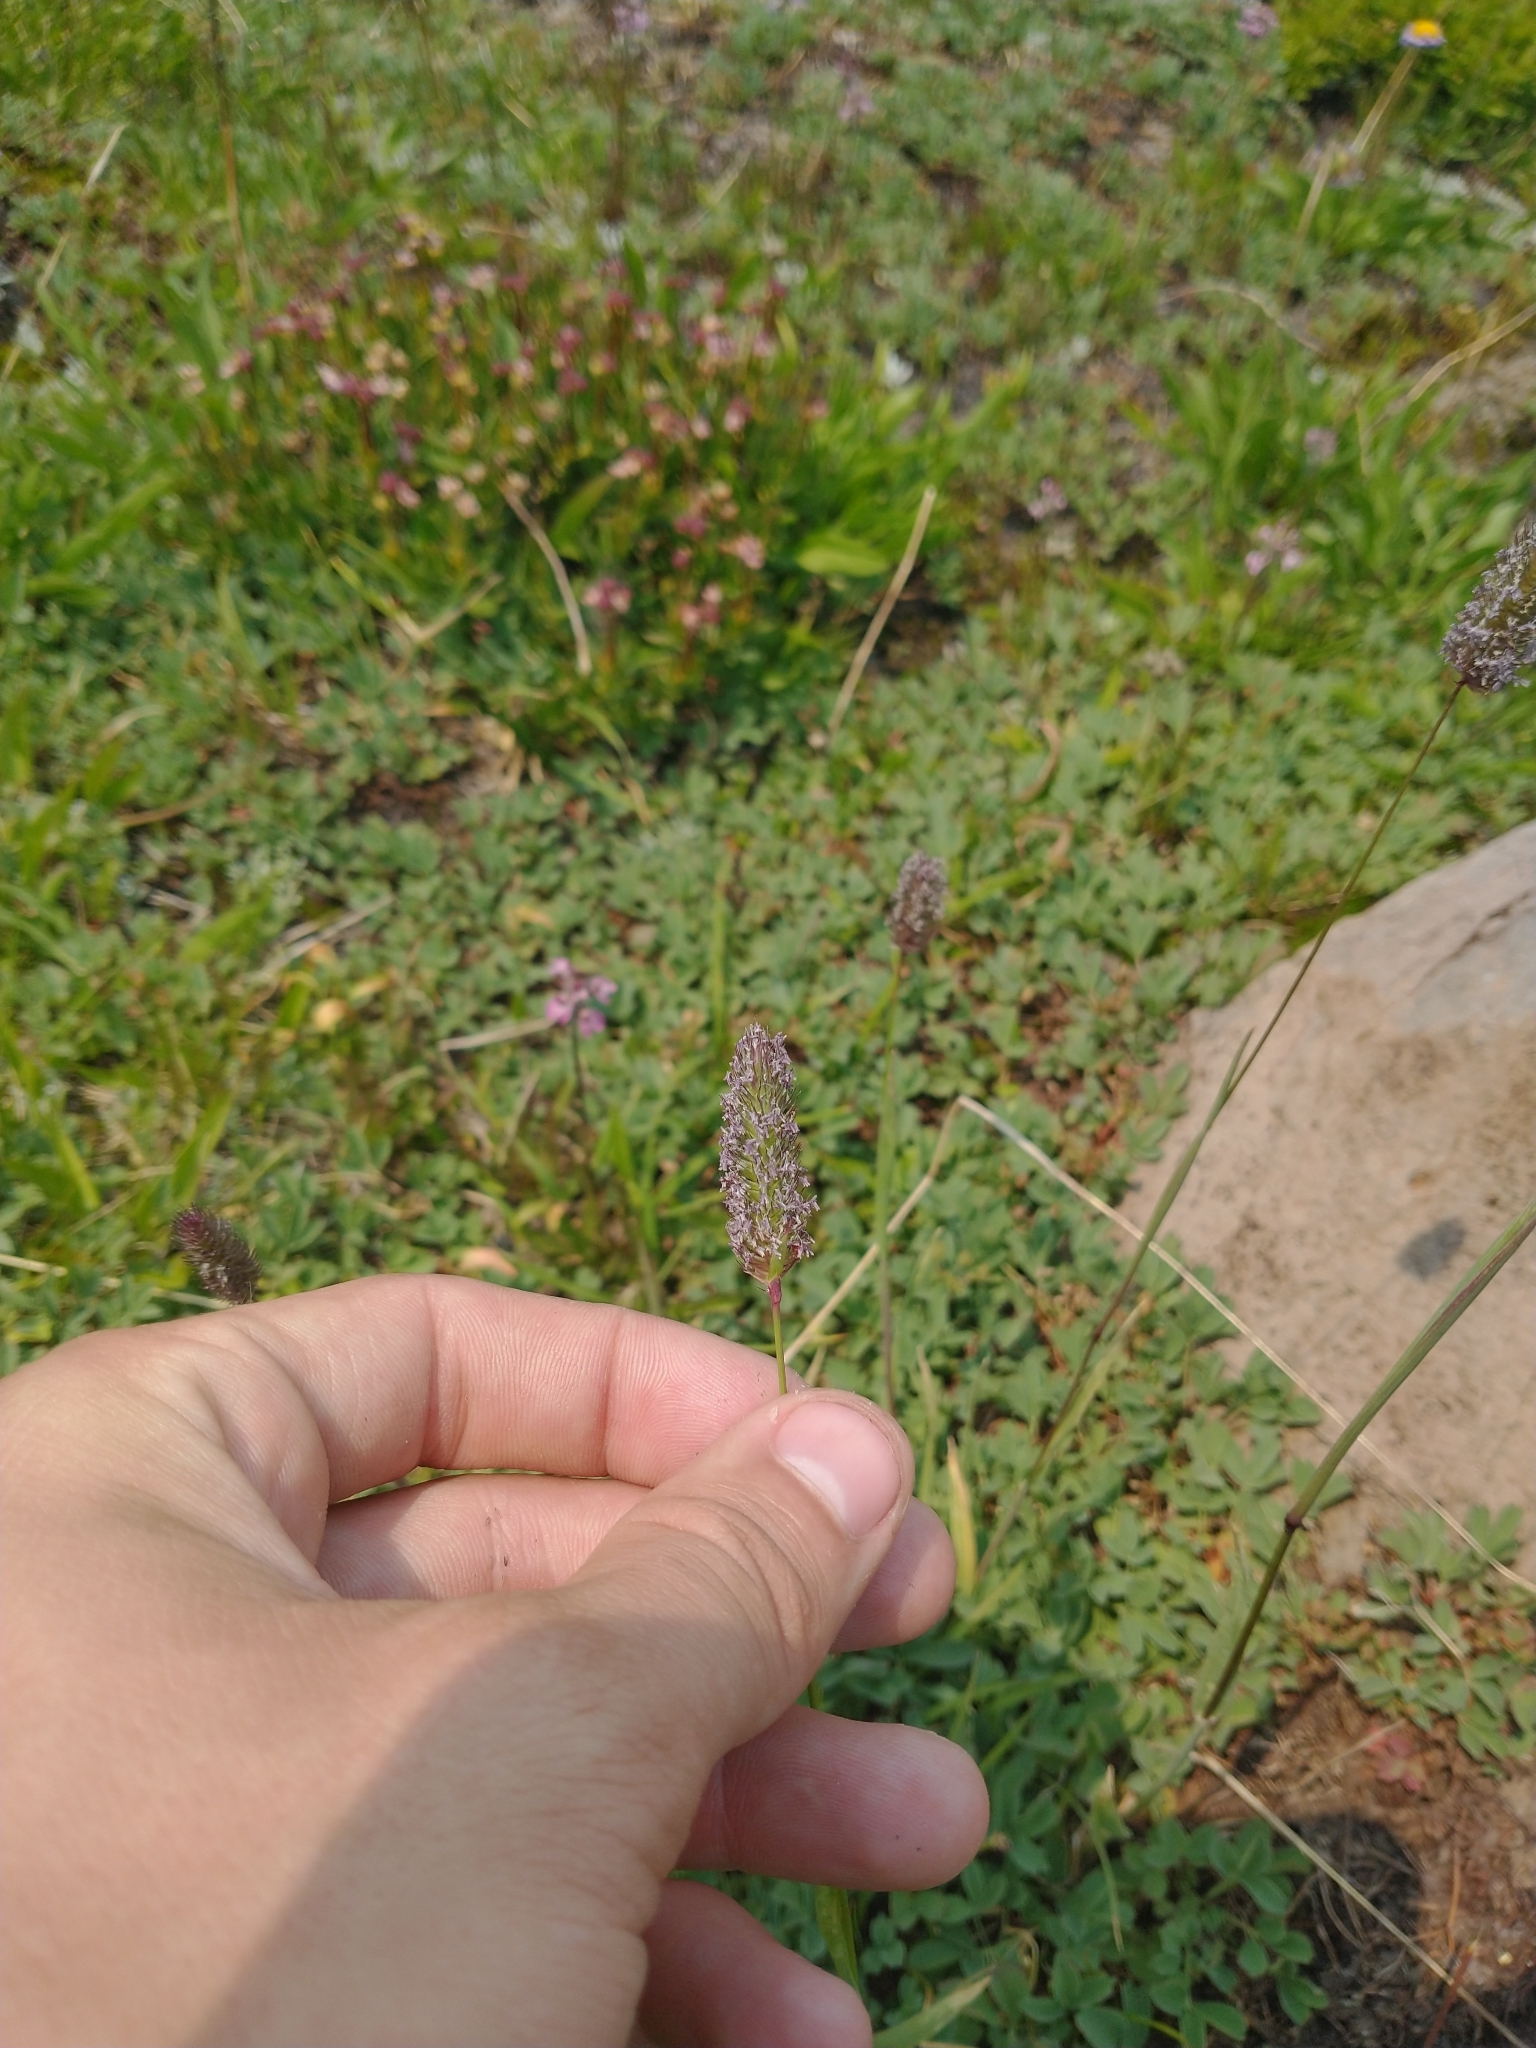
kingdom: Plantae
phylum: Tracheophyta
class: Liliopsida
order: Poales
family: Poaceae
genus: Phleum
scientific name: Phleum alpinum
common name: Alpine cat's-tail
